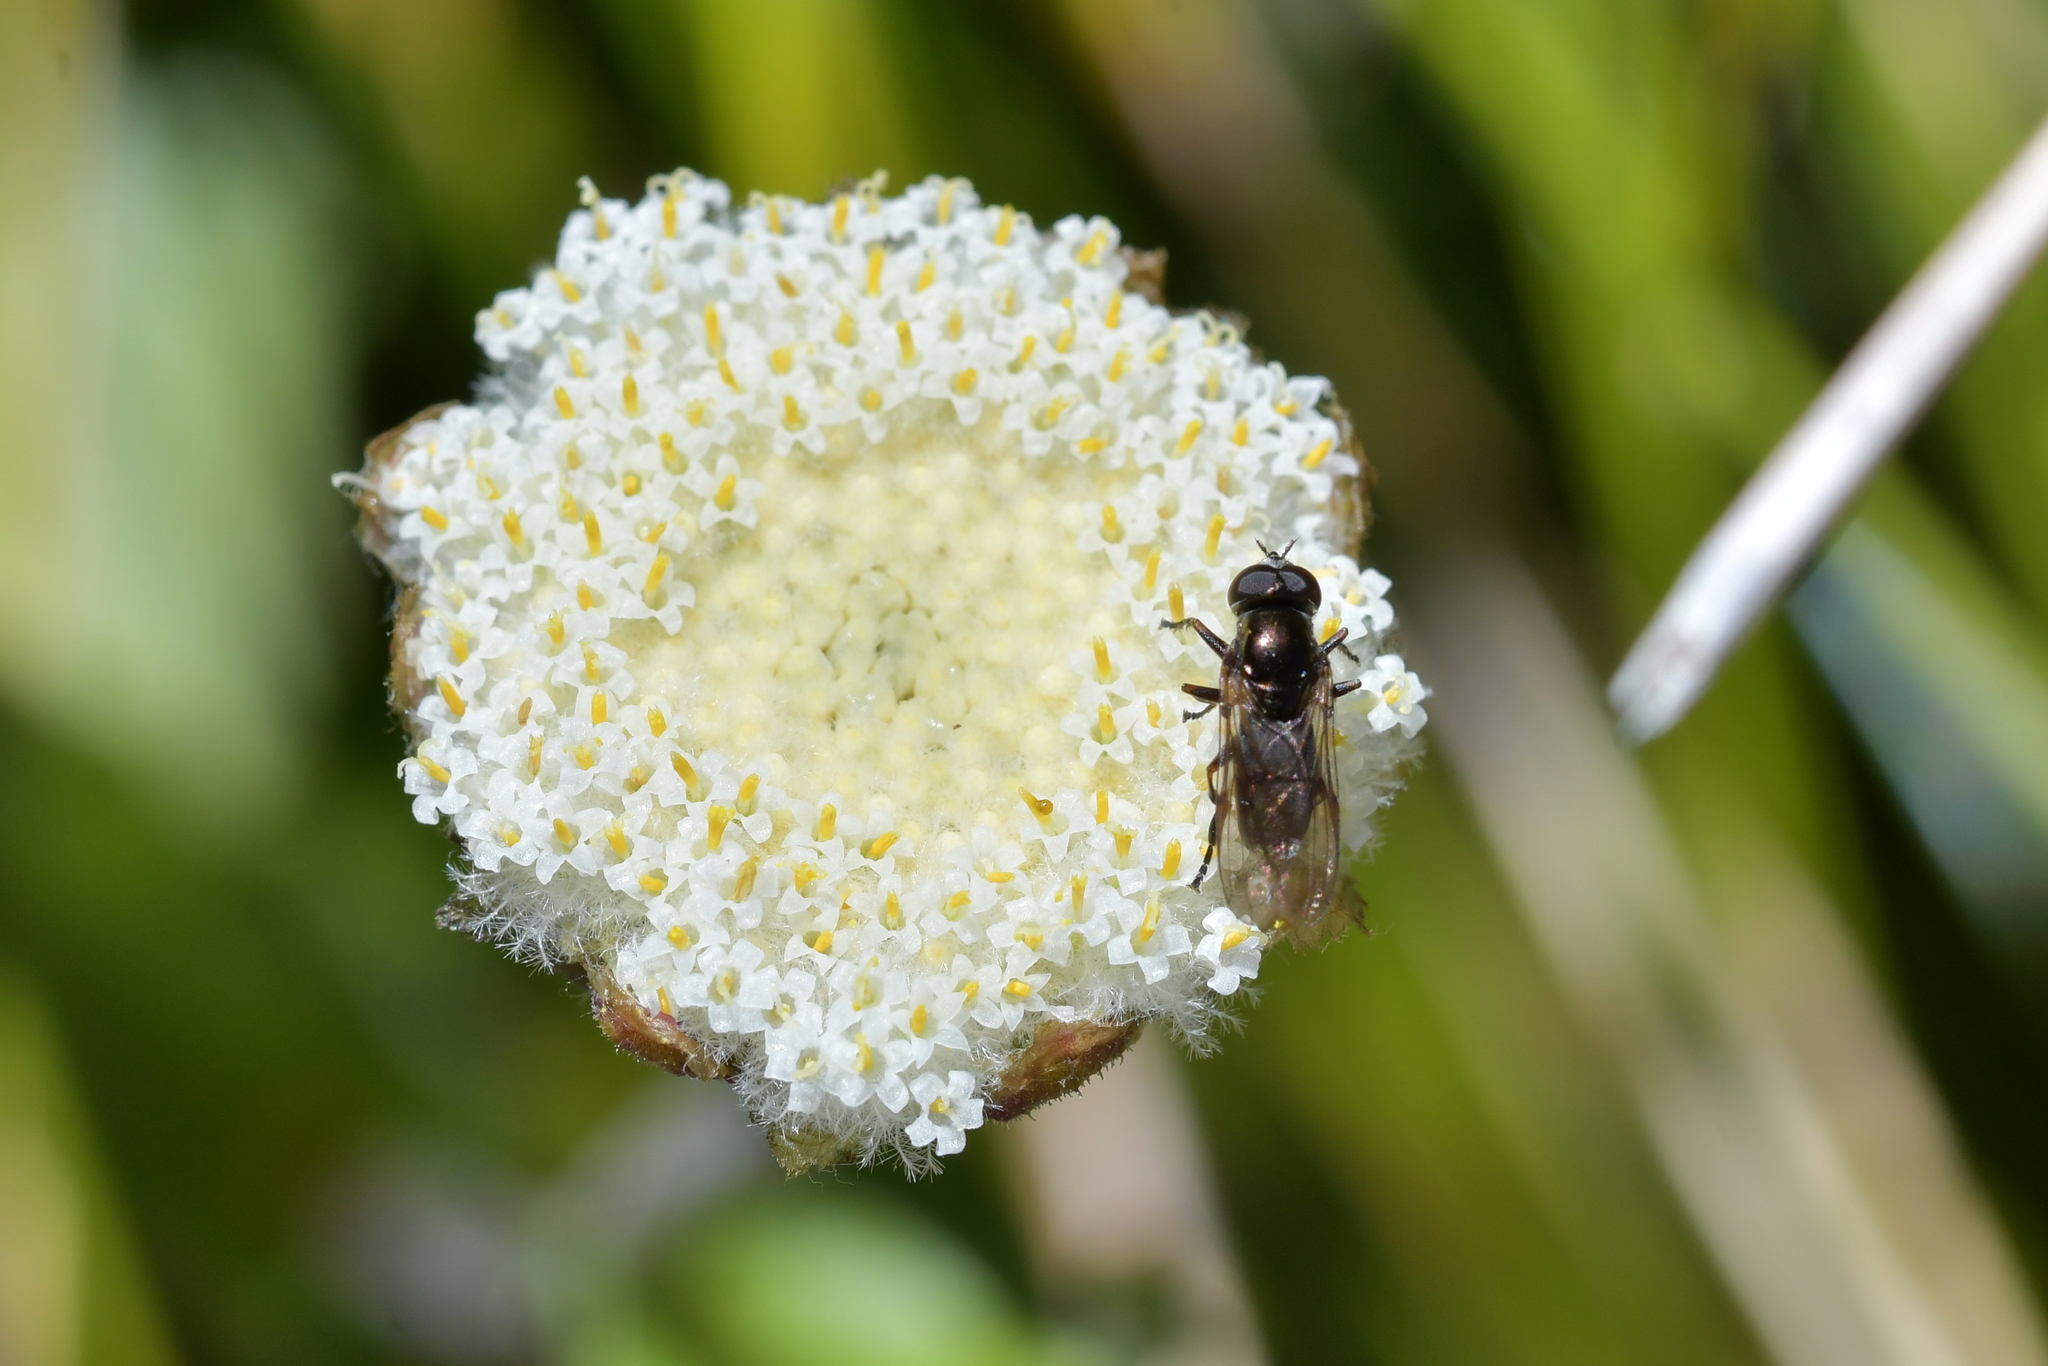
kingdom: Plantae
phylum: Tracheophyta
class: Magnoliopsida
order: Asterales
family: Asteraceae
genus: Craspedia
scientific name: Craspedia uniflora
